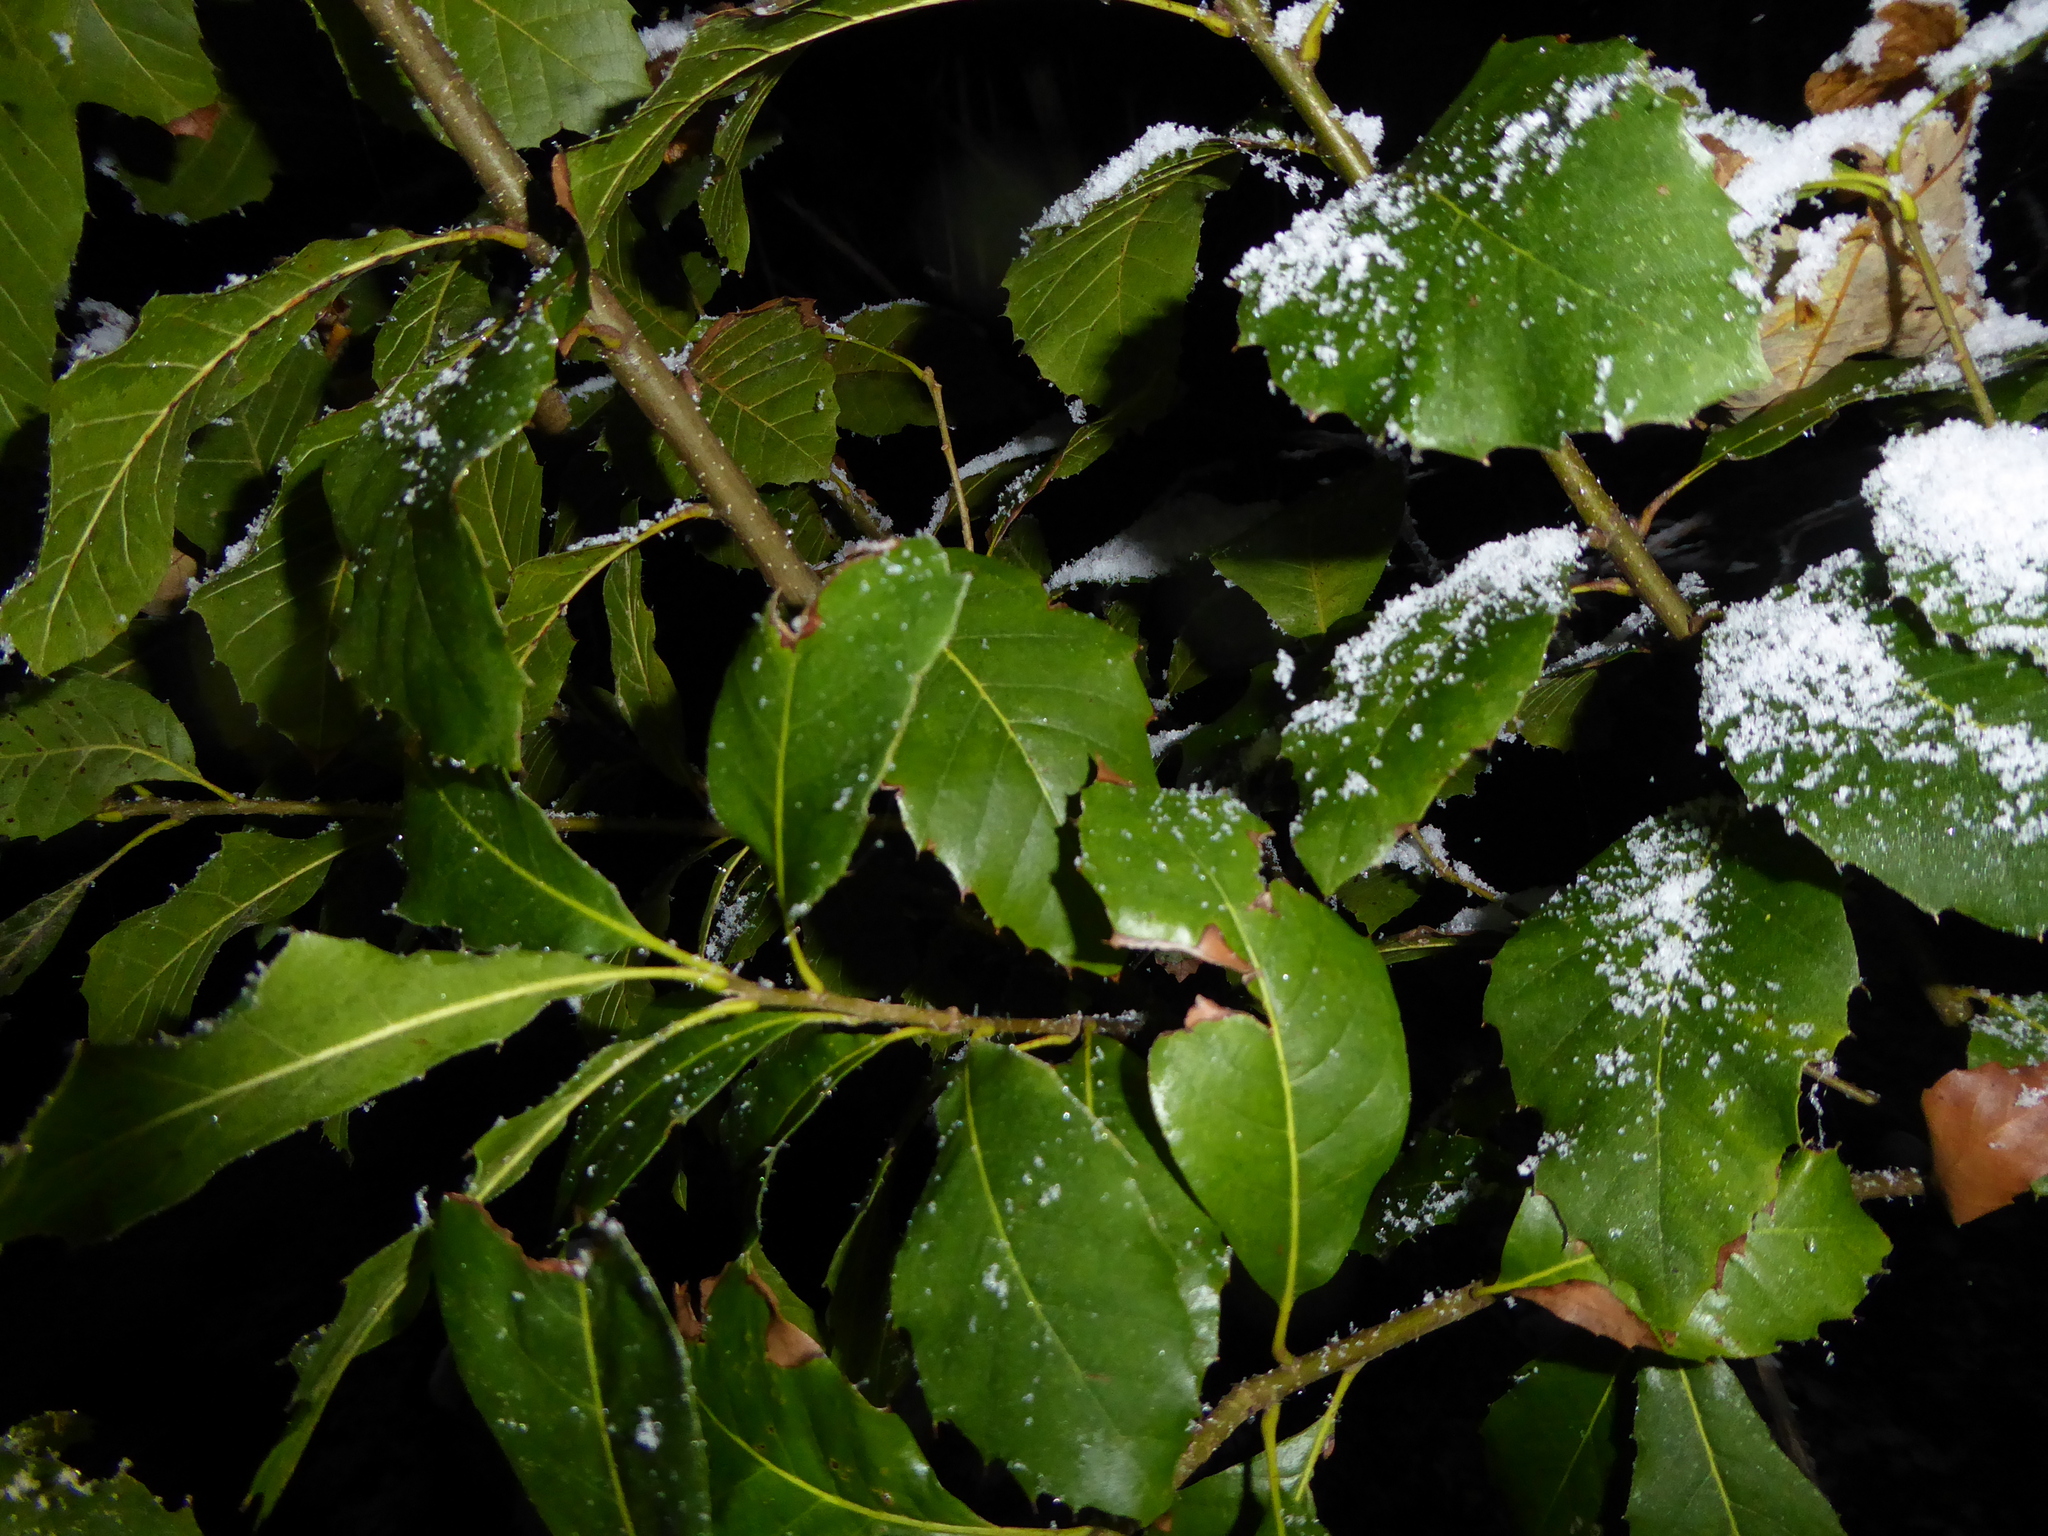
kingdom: Plantae
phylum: Tracheophyta
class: Magnoliopsida
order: Fagales
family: Fagaceae
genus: Quercus
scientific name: Quercus ilex
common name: Evergreen oak
